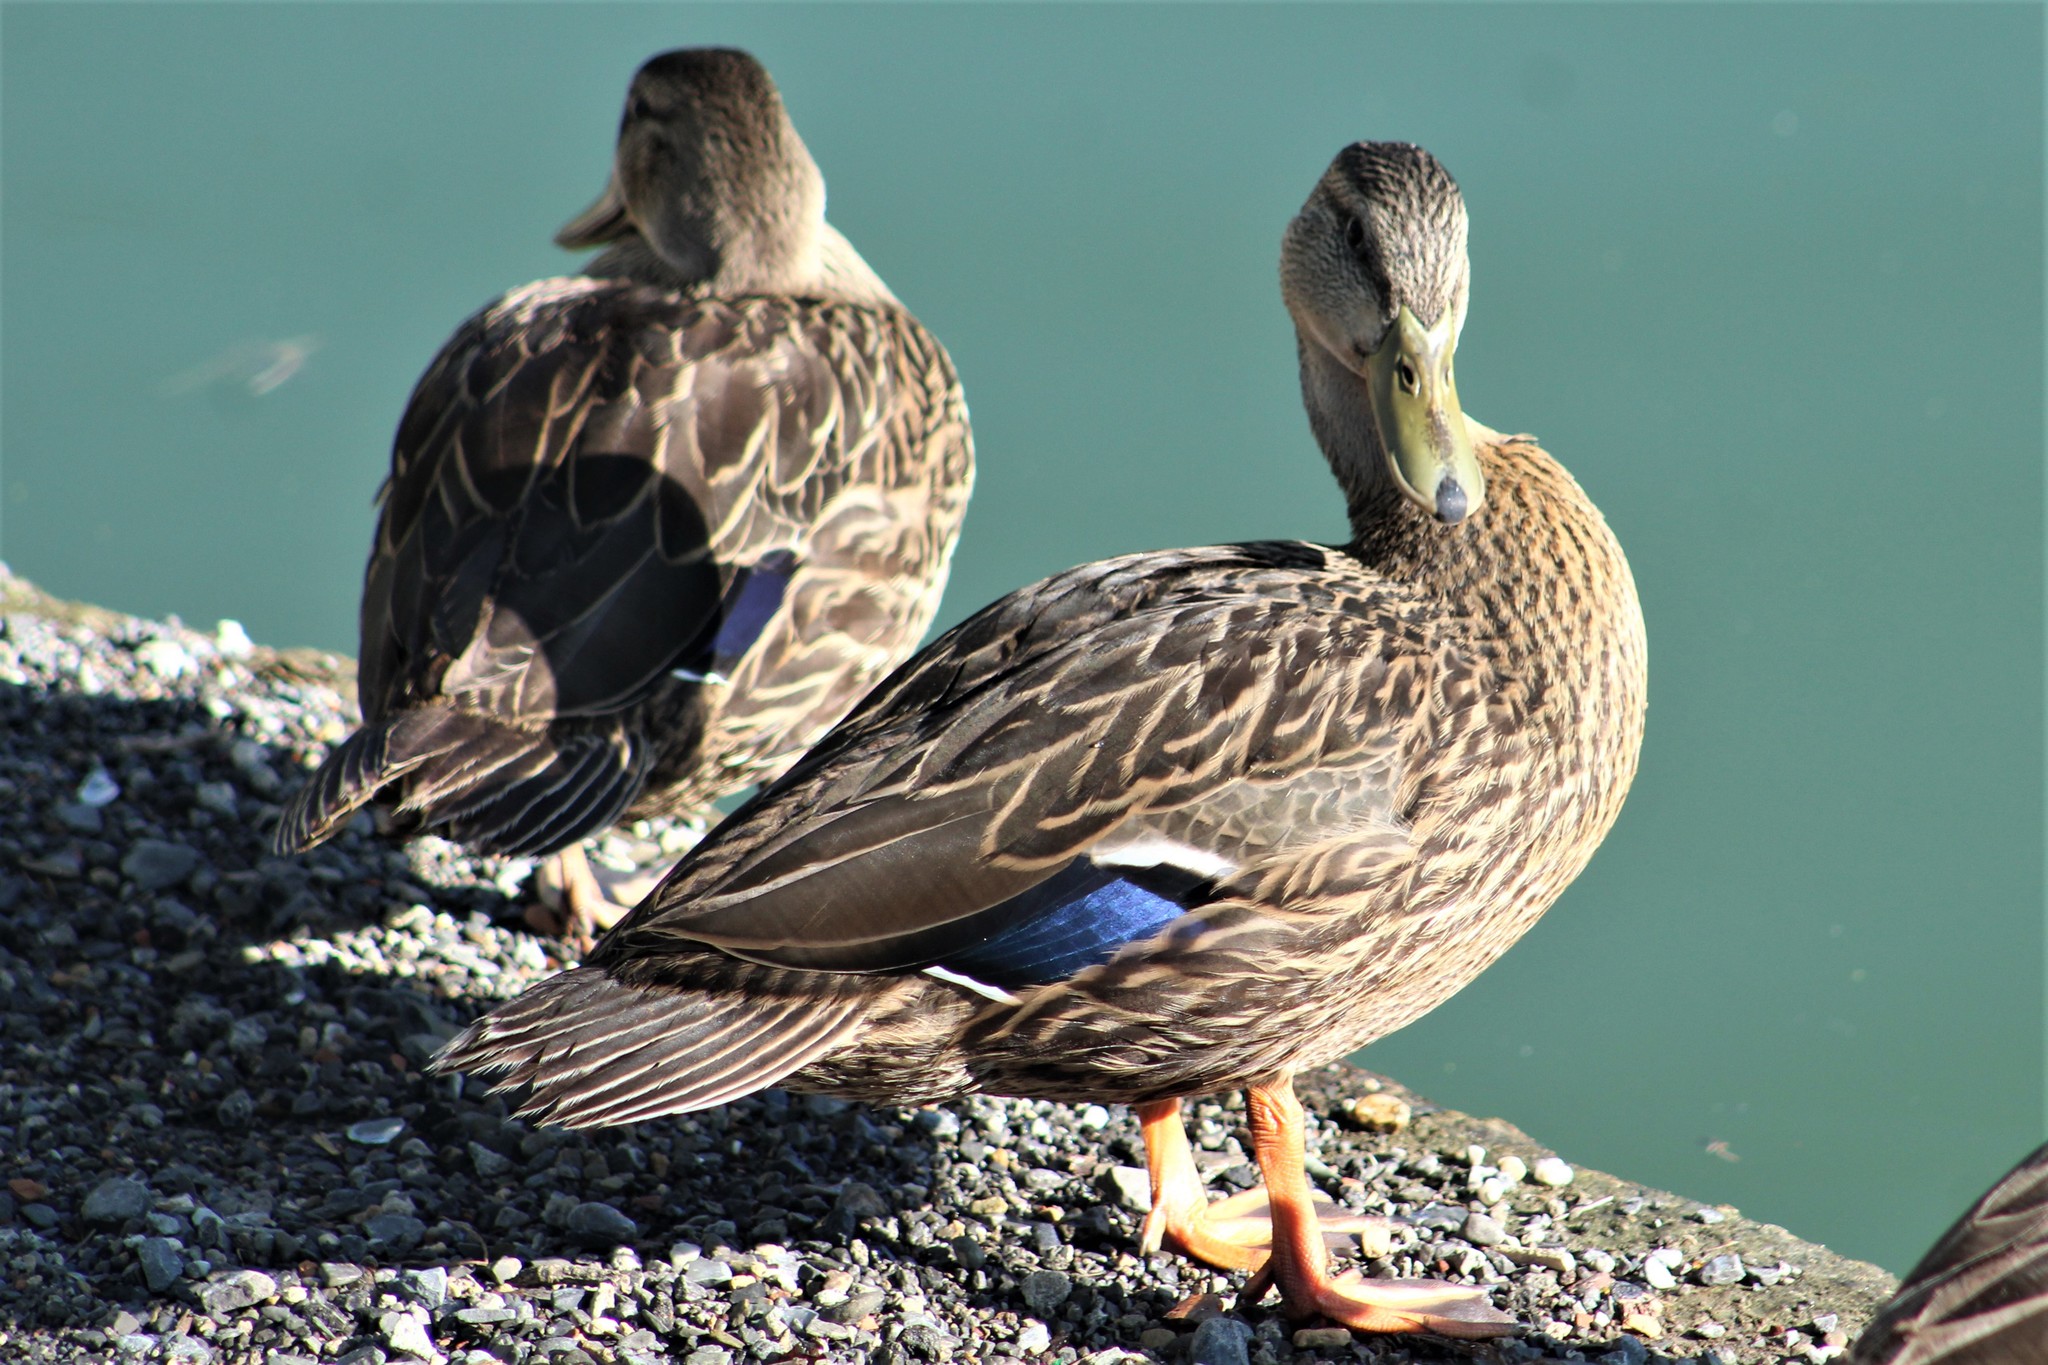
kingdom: Animalia
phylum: Chordata
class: Aves
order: Anseriformes
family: Anatidae
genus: Anas
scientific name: Anas diazi
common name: Mexican duck
